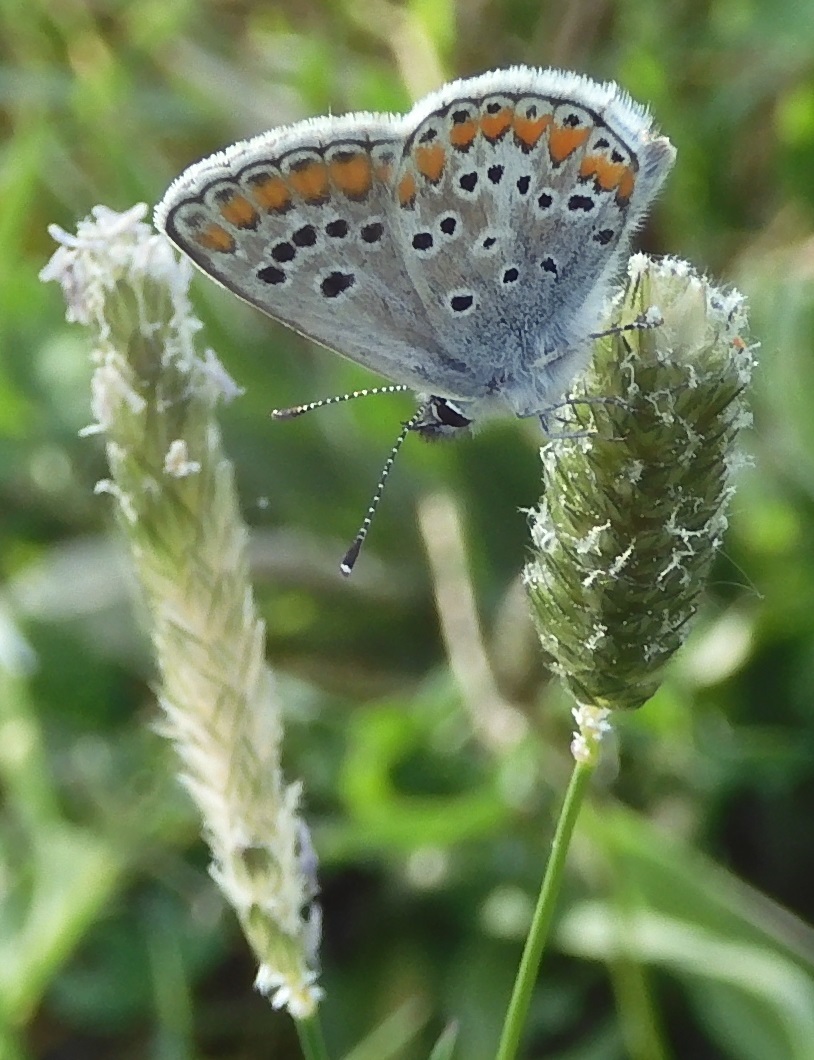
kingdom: Animalia
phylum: Arthropoda
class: Insecta
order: Lepidoptera
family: Lycaenidae
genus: Aricia
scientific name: Aricia agestis
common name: Brown argus
